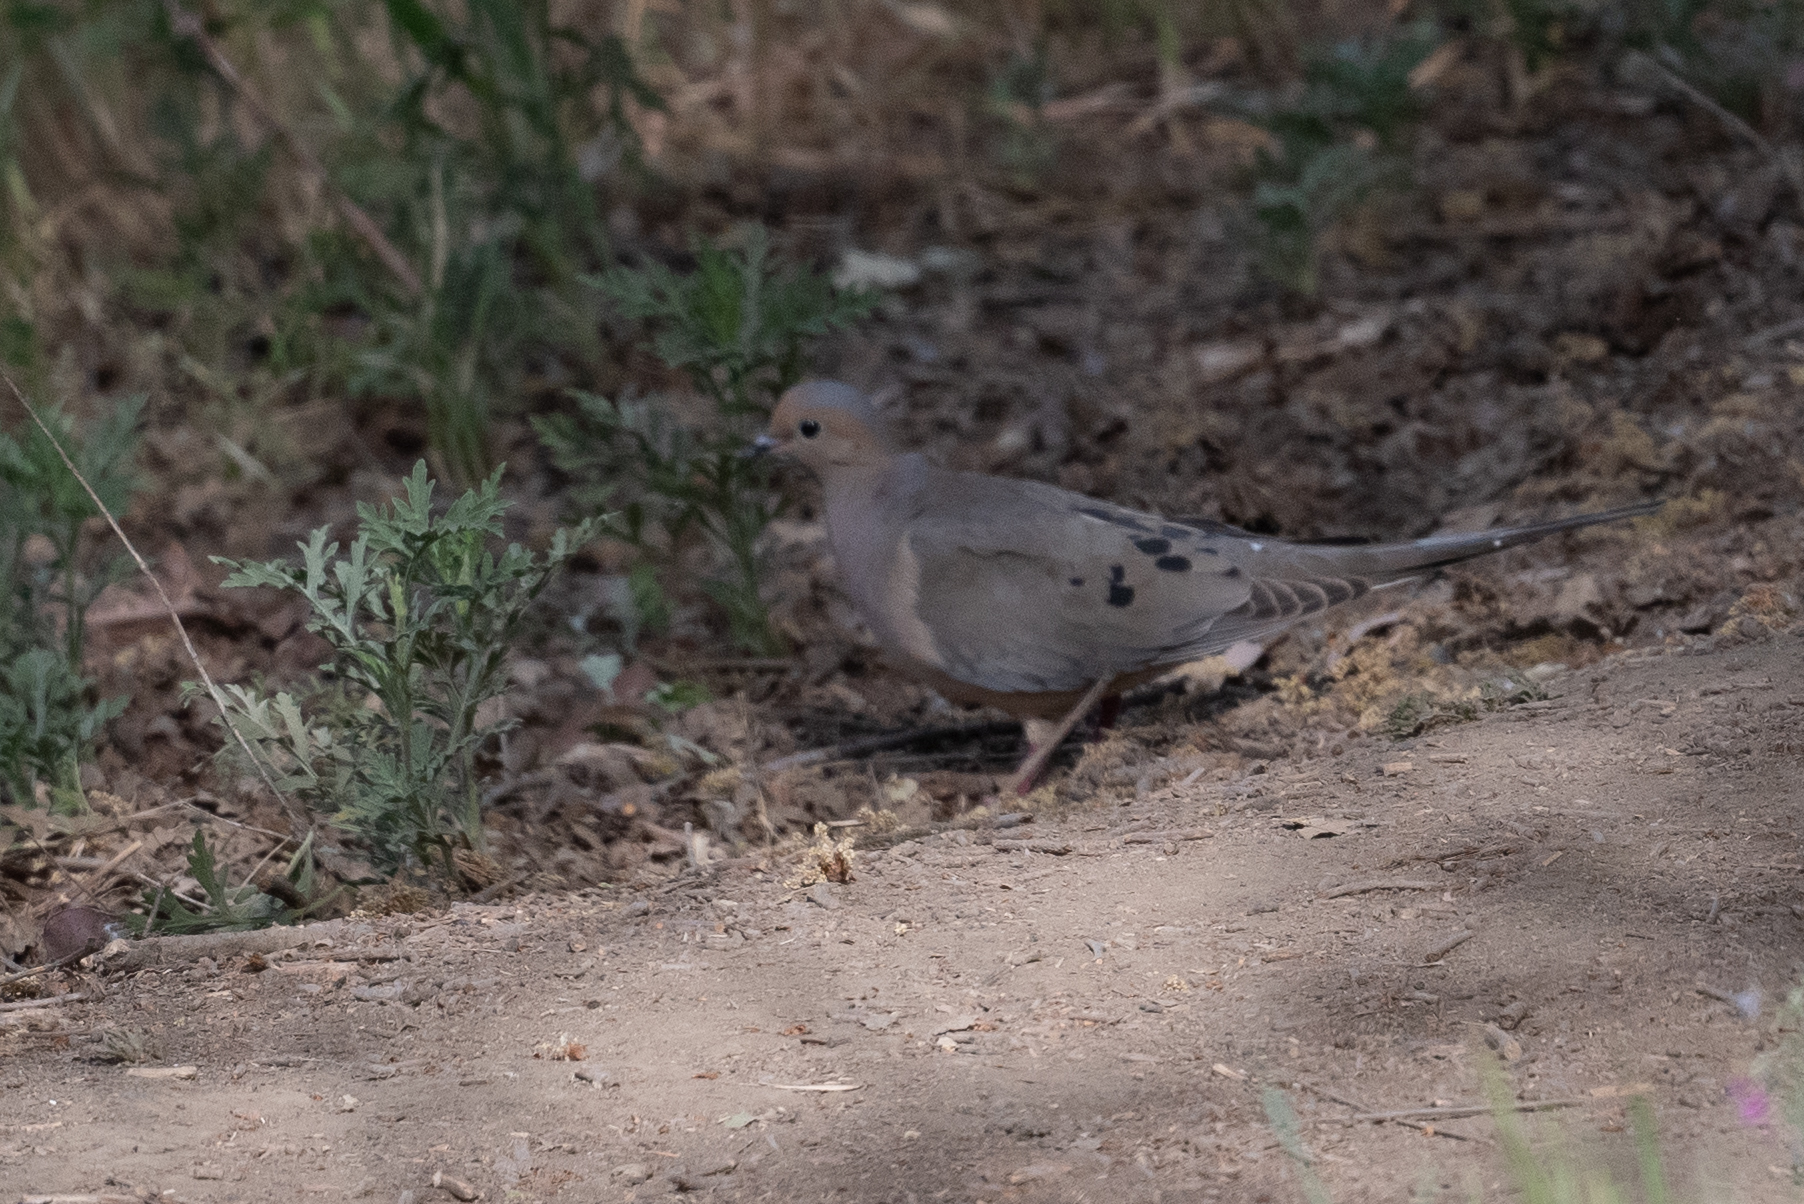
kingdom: Animalia
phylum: Chordata
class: Aves
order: Columbiformes
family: Columbidae
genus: Zenaida
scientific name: Zenaida macroura
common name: Mourning dove
